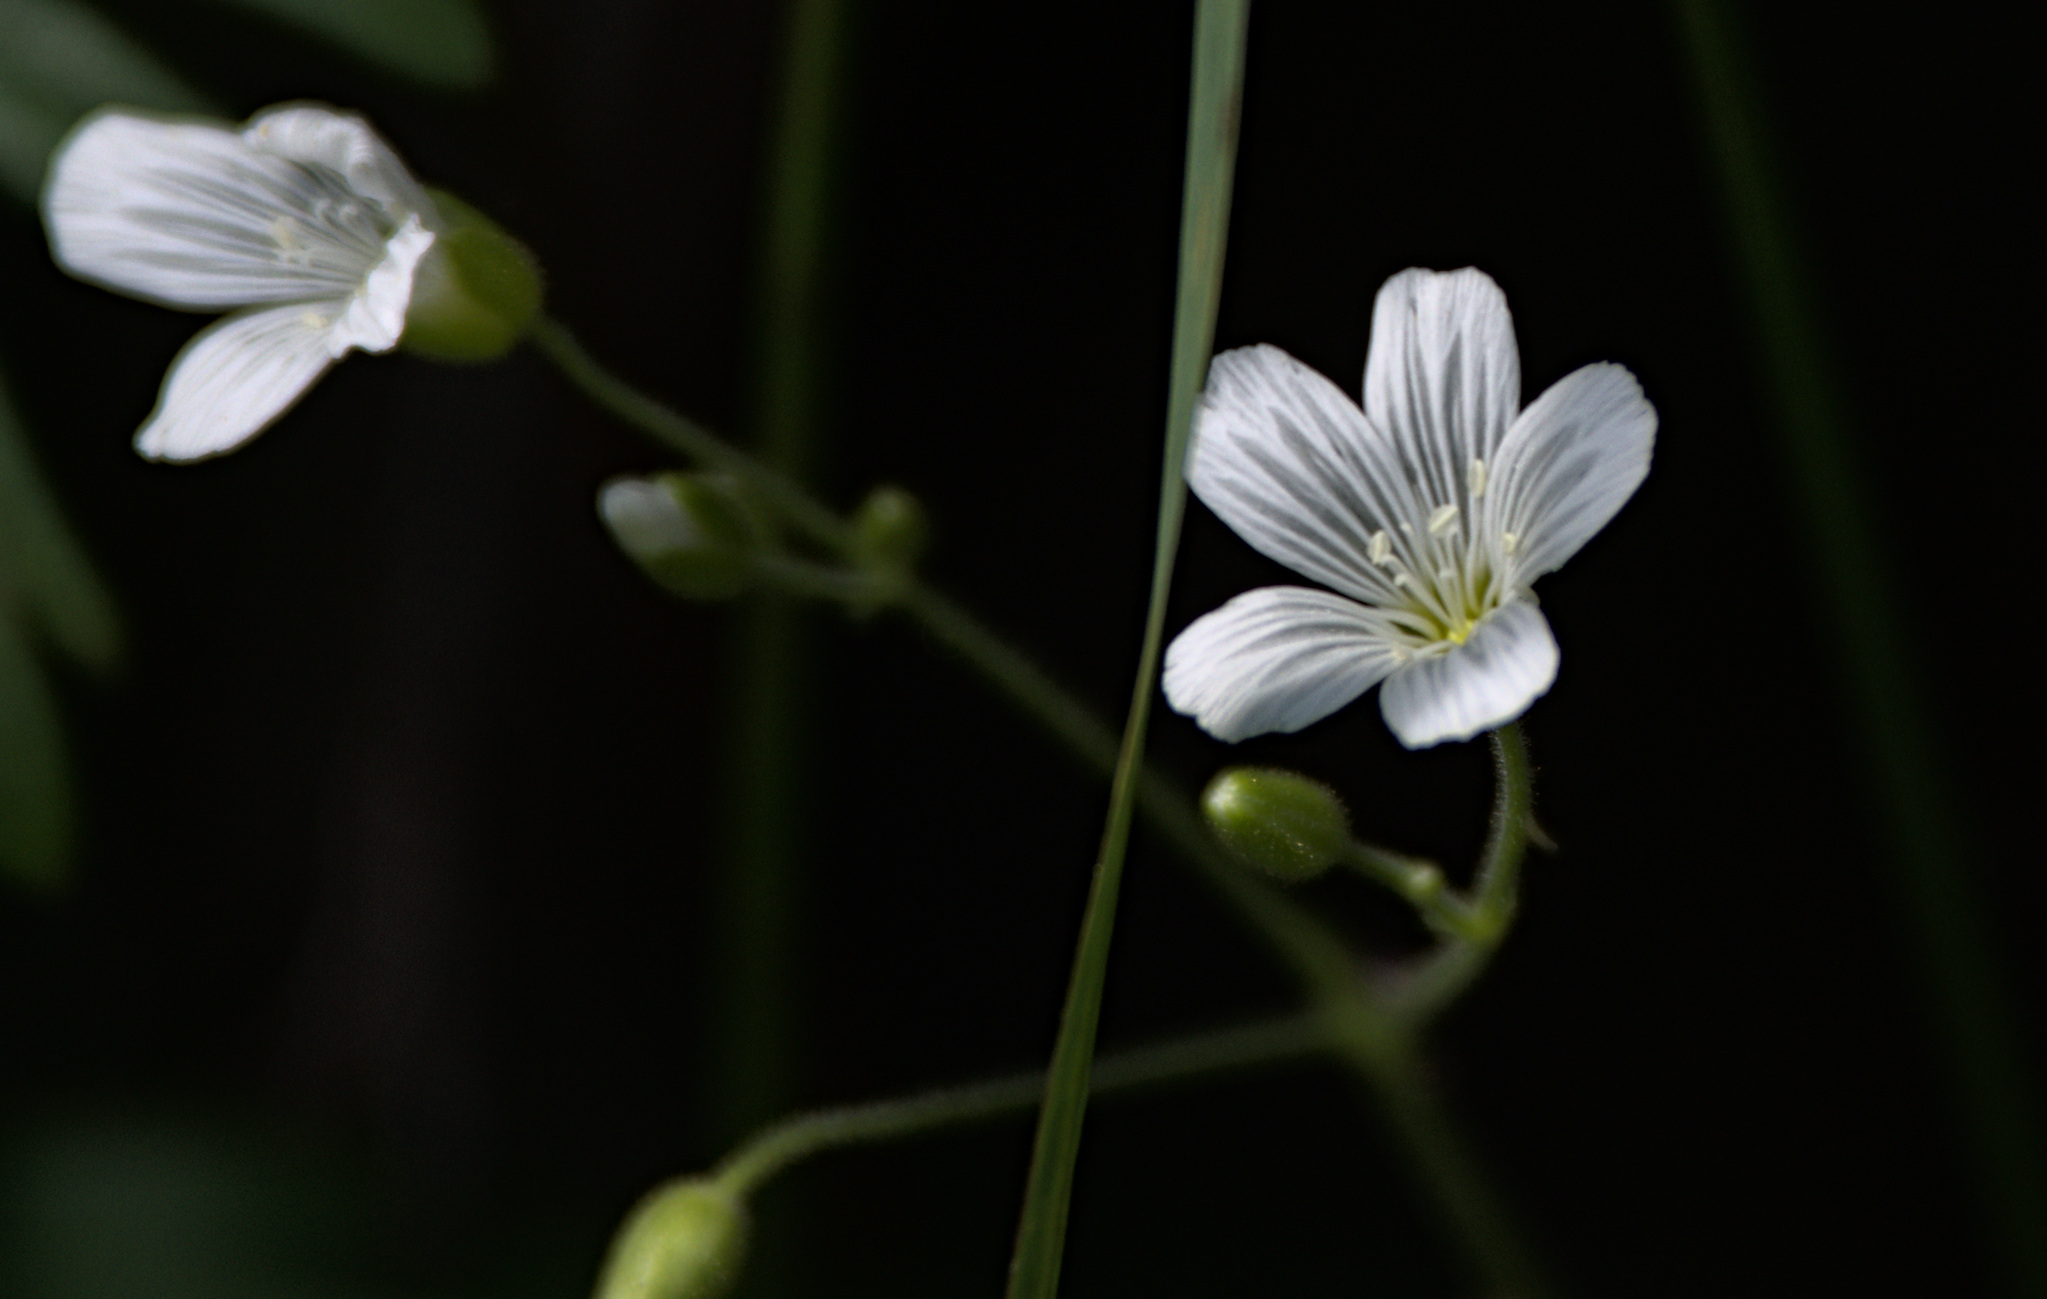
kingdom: Plantae
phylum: Tracheophyta
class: Magnoliopsida
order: Caryophyllales
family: Caryophyllaceae
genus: Cerastium
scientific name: Cerastium pauciflorum
